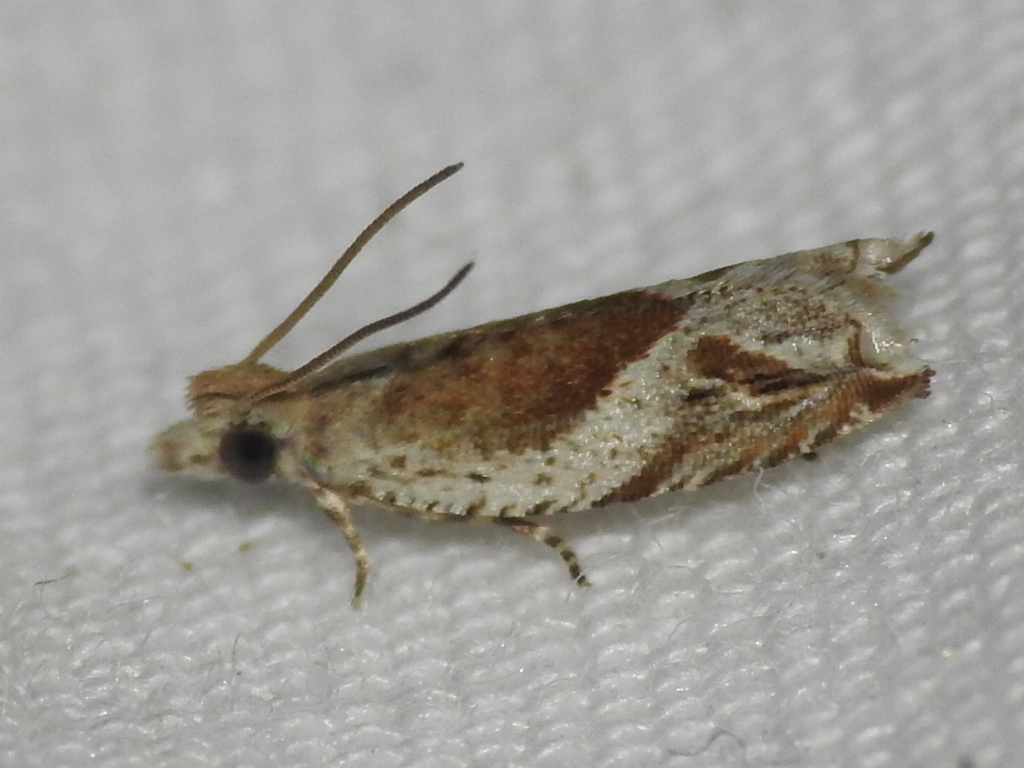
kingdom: Animalia
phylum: Arthropoda
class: Insecta
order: Lepidoptera
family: Tortricidae
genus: Ancylis
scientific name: Ancylis comptana
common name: Little roller
